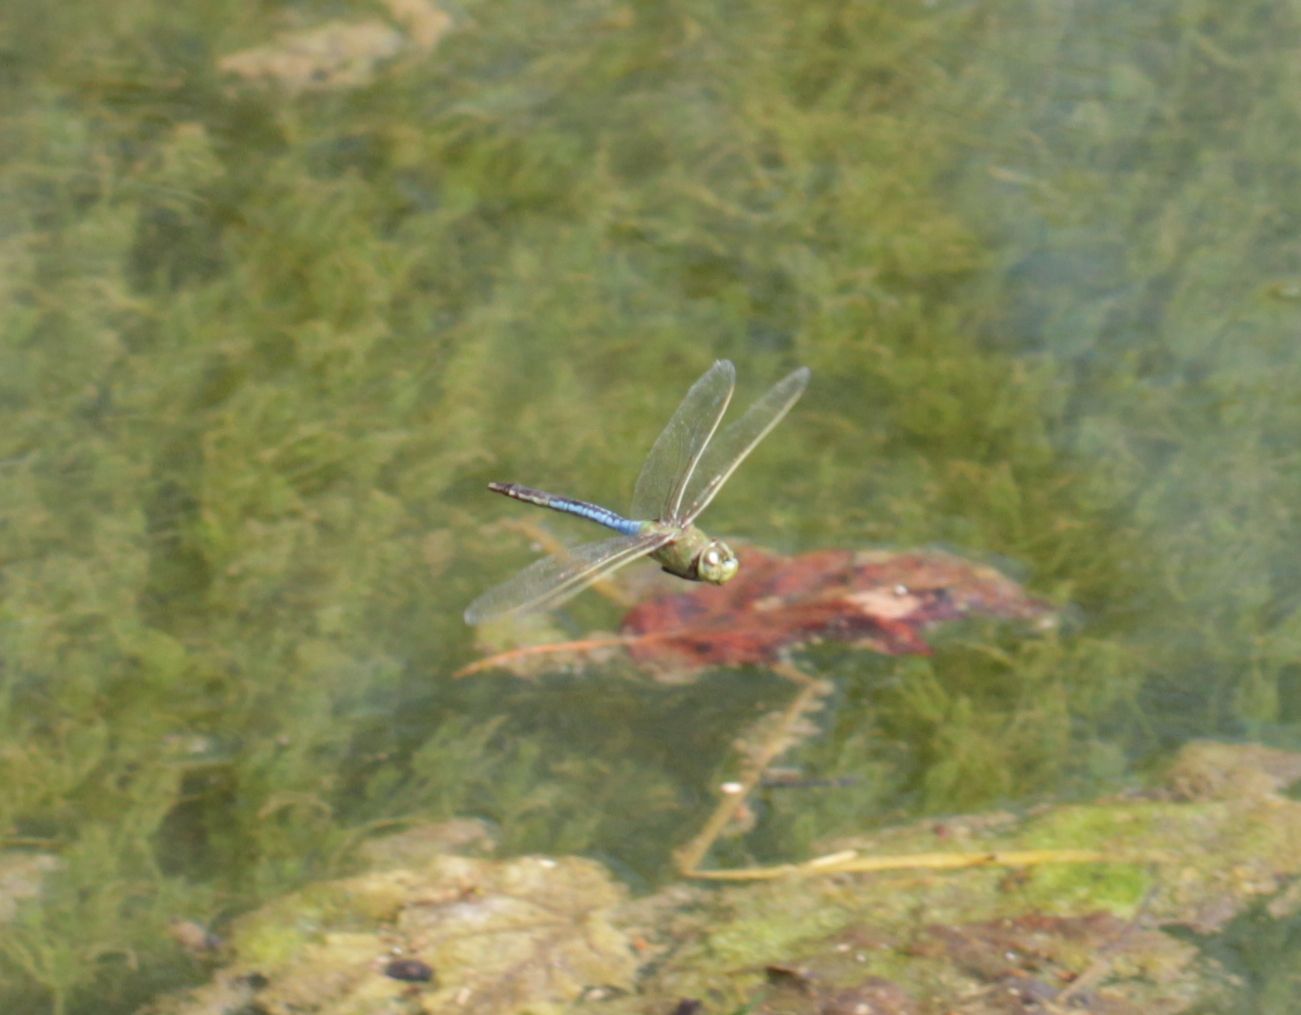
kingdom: Animalia
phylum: Arthropoda
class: Insecta
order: Odonata
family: Aeshnidae
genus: Anax
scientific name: Anax junius
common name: Common green darner
